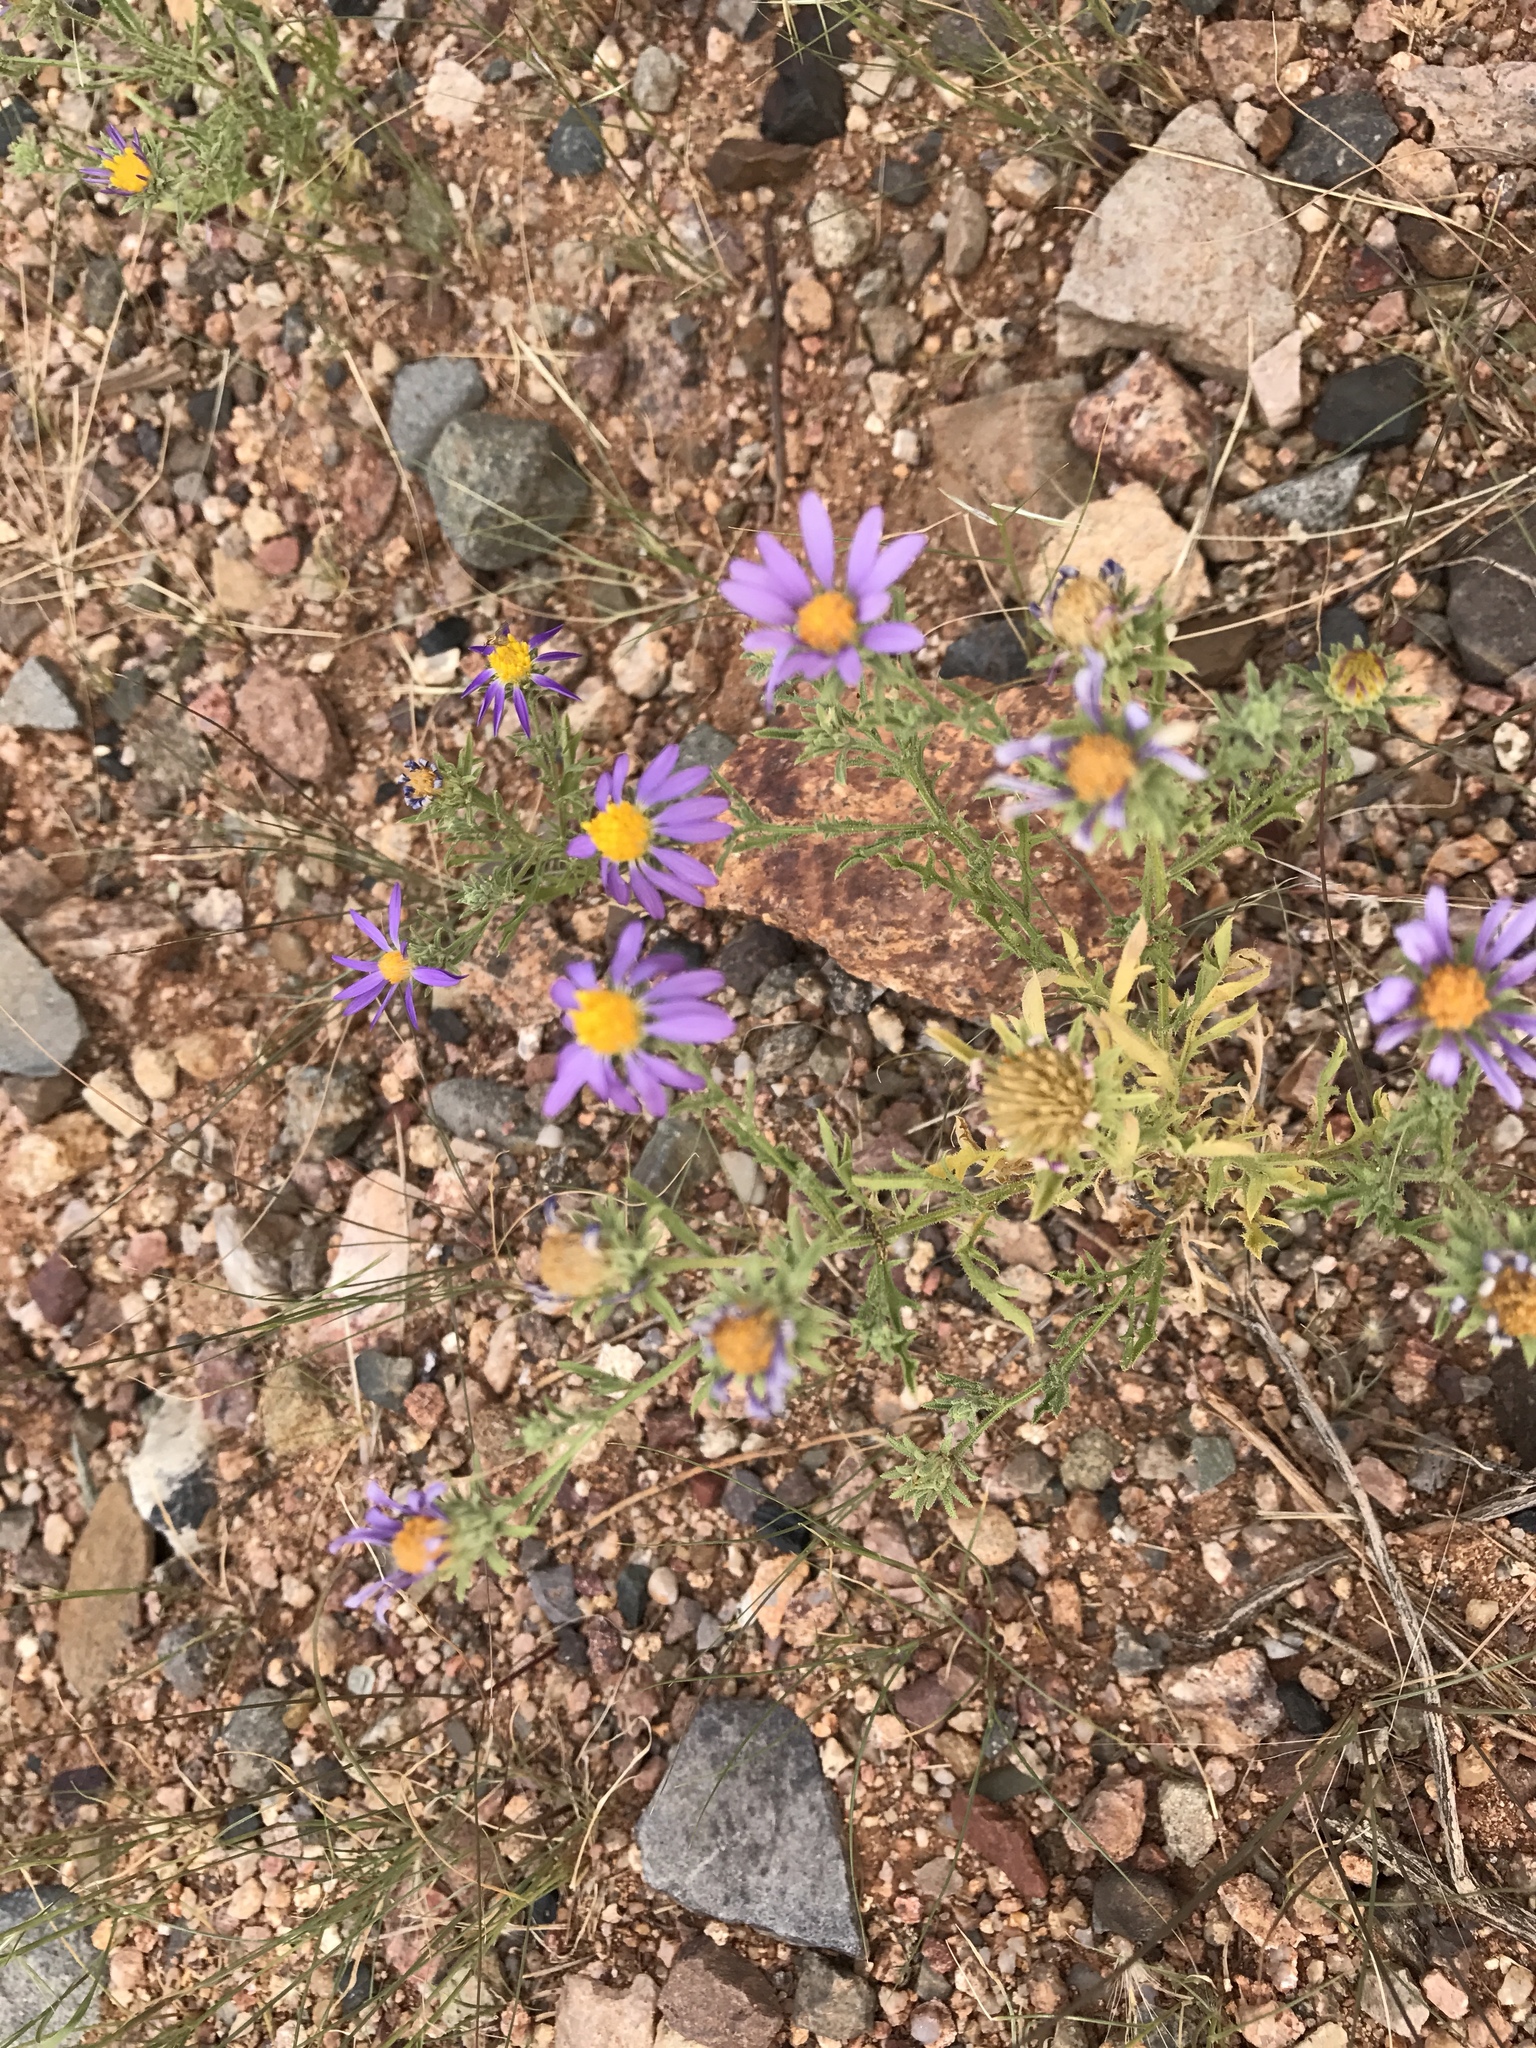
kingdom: Plantae
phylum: Tracheophyta
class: Magnoliopsida
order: Asterales
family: Asteraceae
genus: Machaeranthera
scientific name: Machaeranthera tagetina
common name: Mesa tansy-aster
